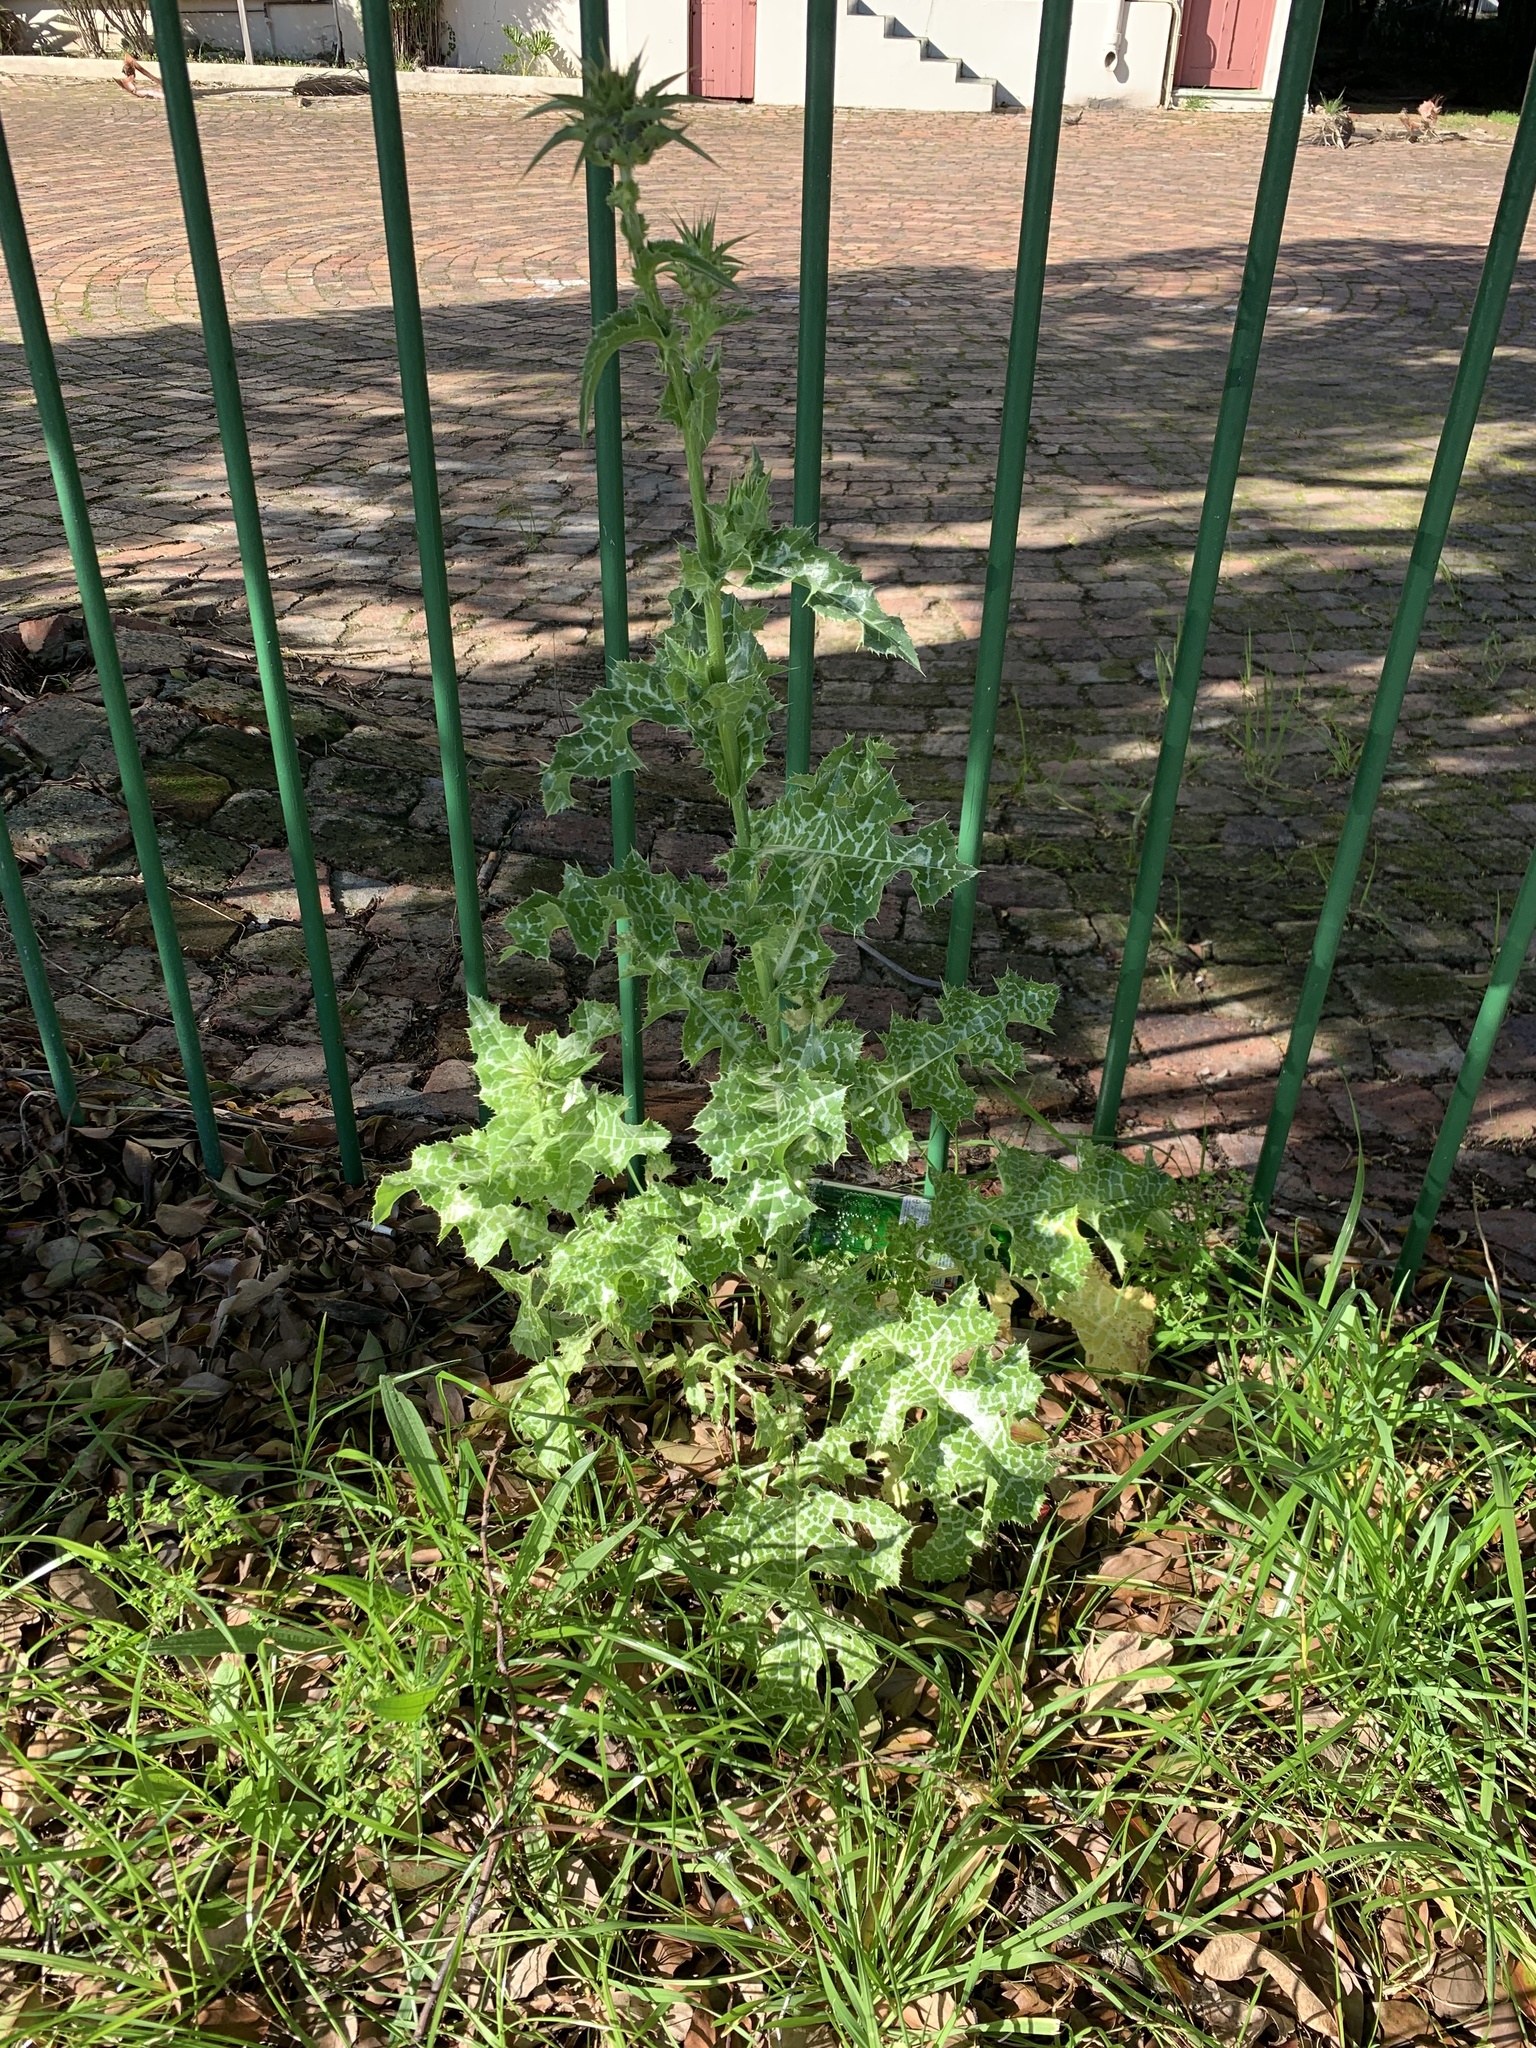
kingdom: Plantae
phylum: Tracheophyta
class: Magnoliopsida
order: Asterales
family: Asteraceae
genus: Silybum
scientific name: Silybum marianum
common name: Milk thistle
